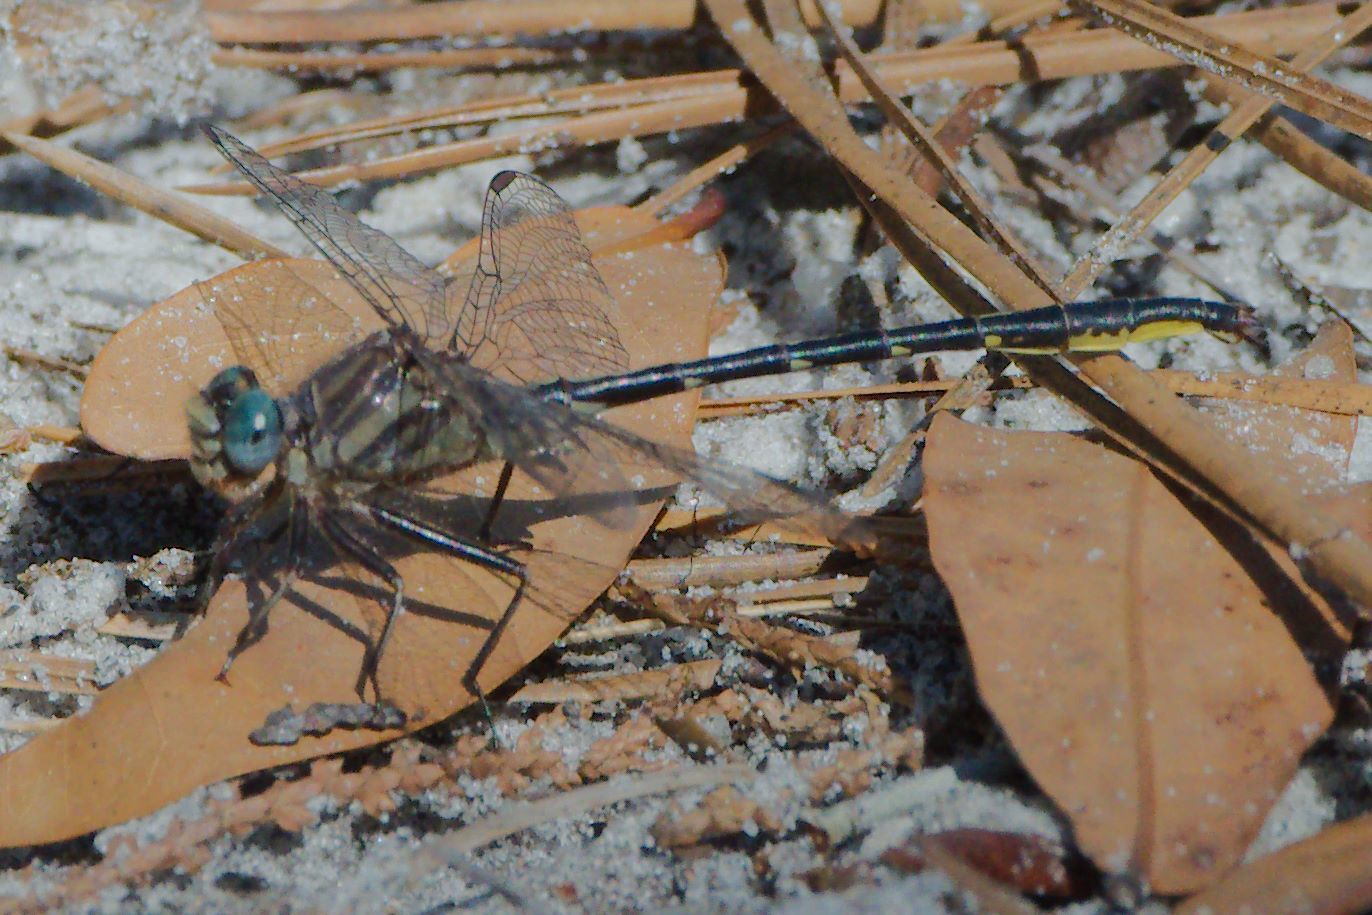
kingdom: Animalia
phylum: Arthropoda
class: Insecta
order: Odonata
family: Gomphidae
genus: Phanogomphus
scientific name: Phanogomphus westfalli
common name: Westfall’s clubtail
